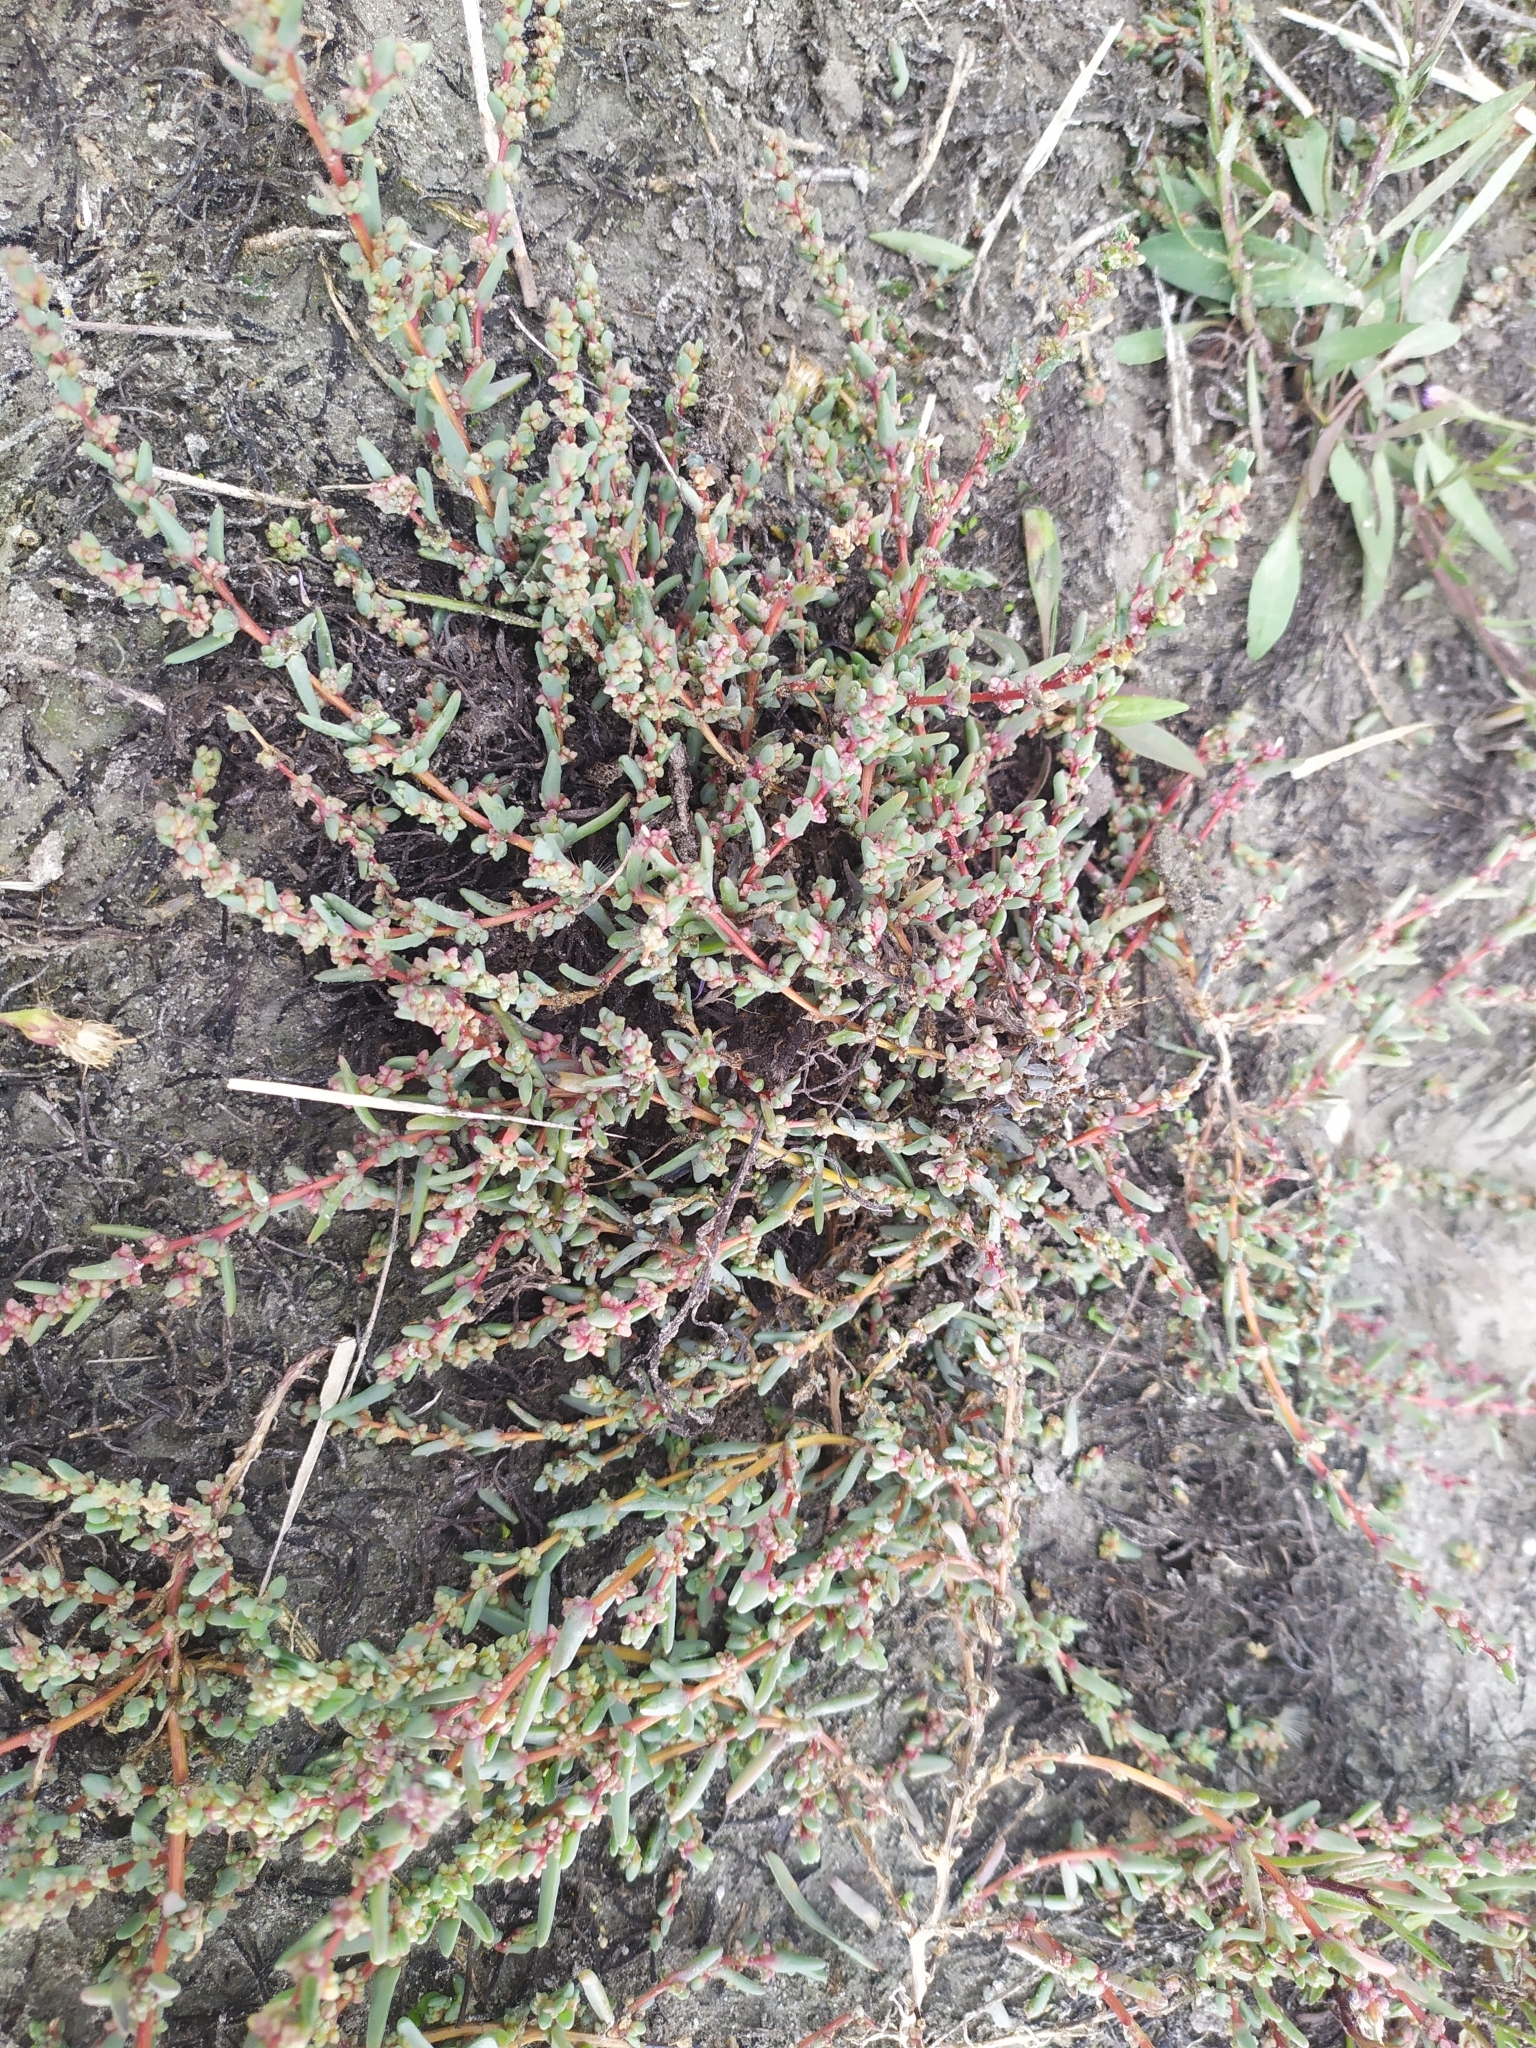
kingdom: Plantae
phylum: Tracheophyta
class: Magnoliopsida
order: Caryophyllales
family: Amaranthaceae
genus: Suaeda
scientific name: Suaeda pannonica
